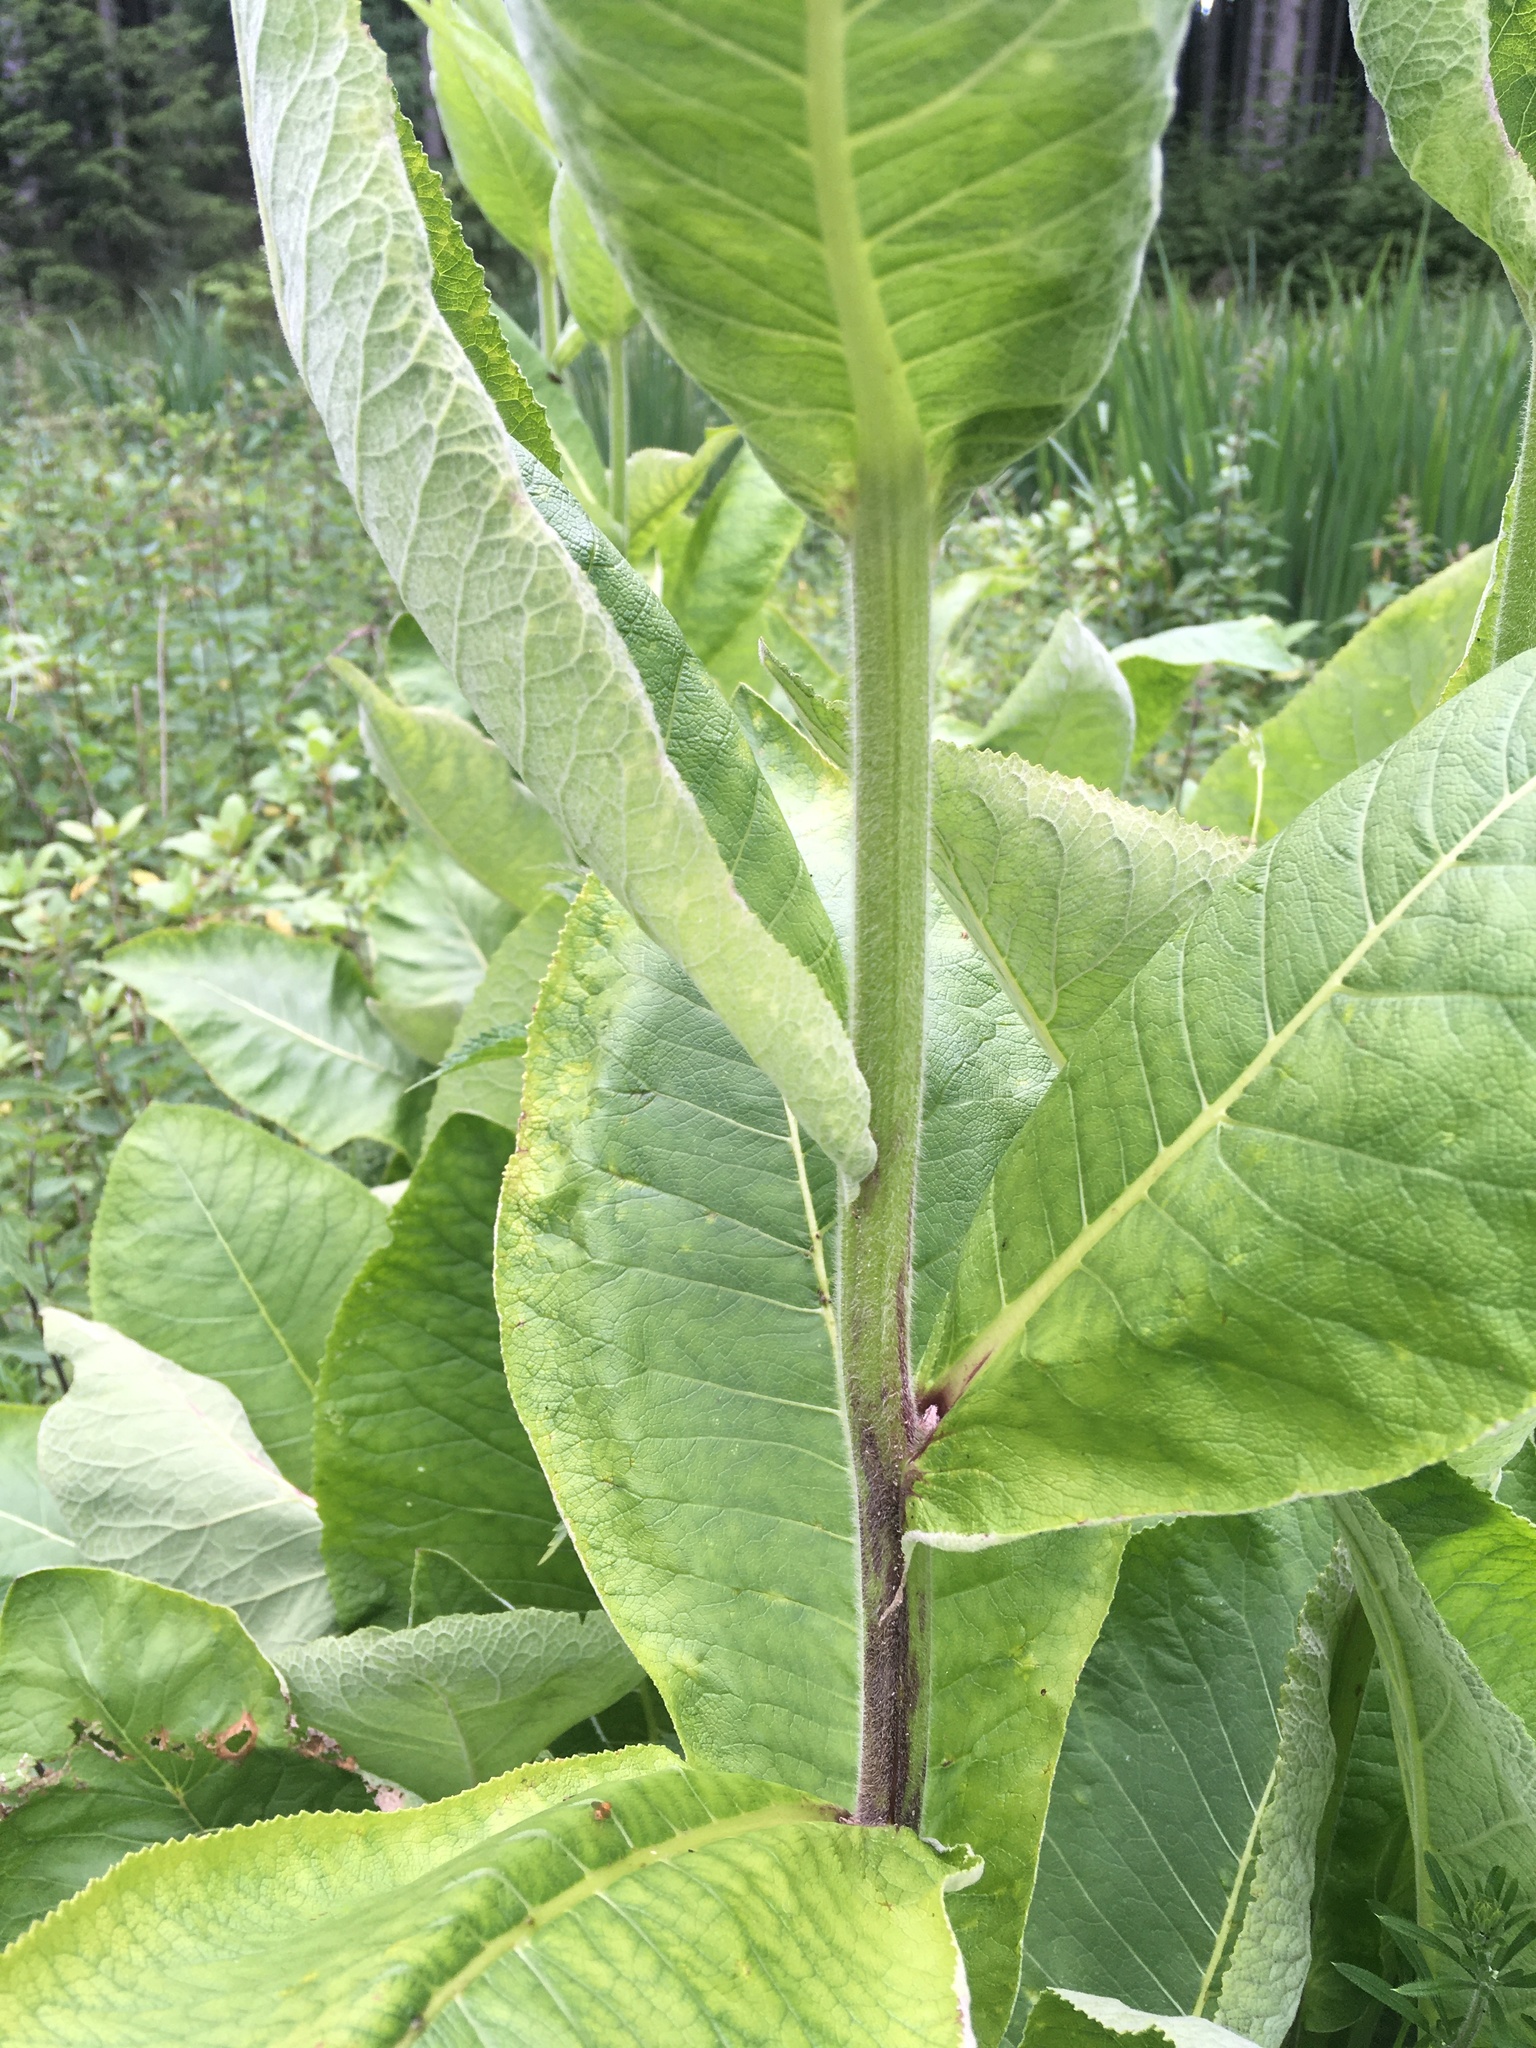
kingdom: Plantae
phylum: Tracheophyta
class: Magnoliopsida
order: Asterales
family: Asteraceae
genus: Inula
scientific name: Inula helenium
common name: Elecampane
